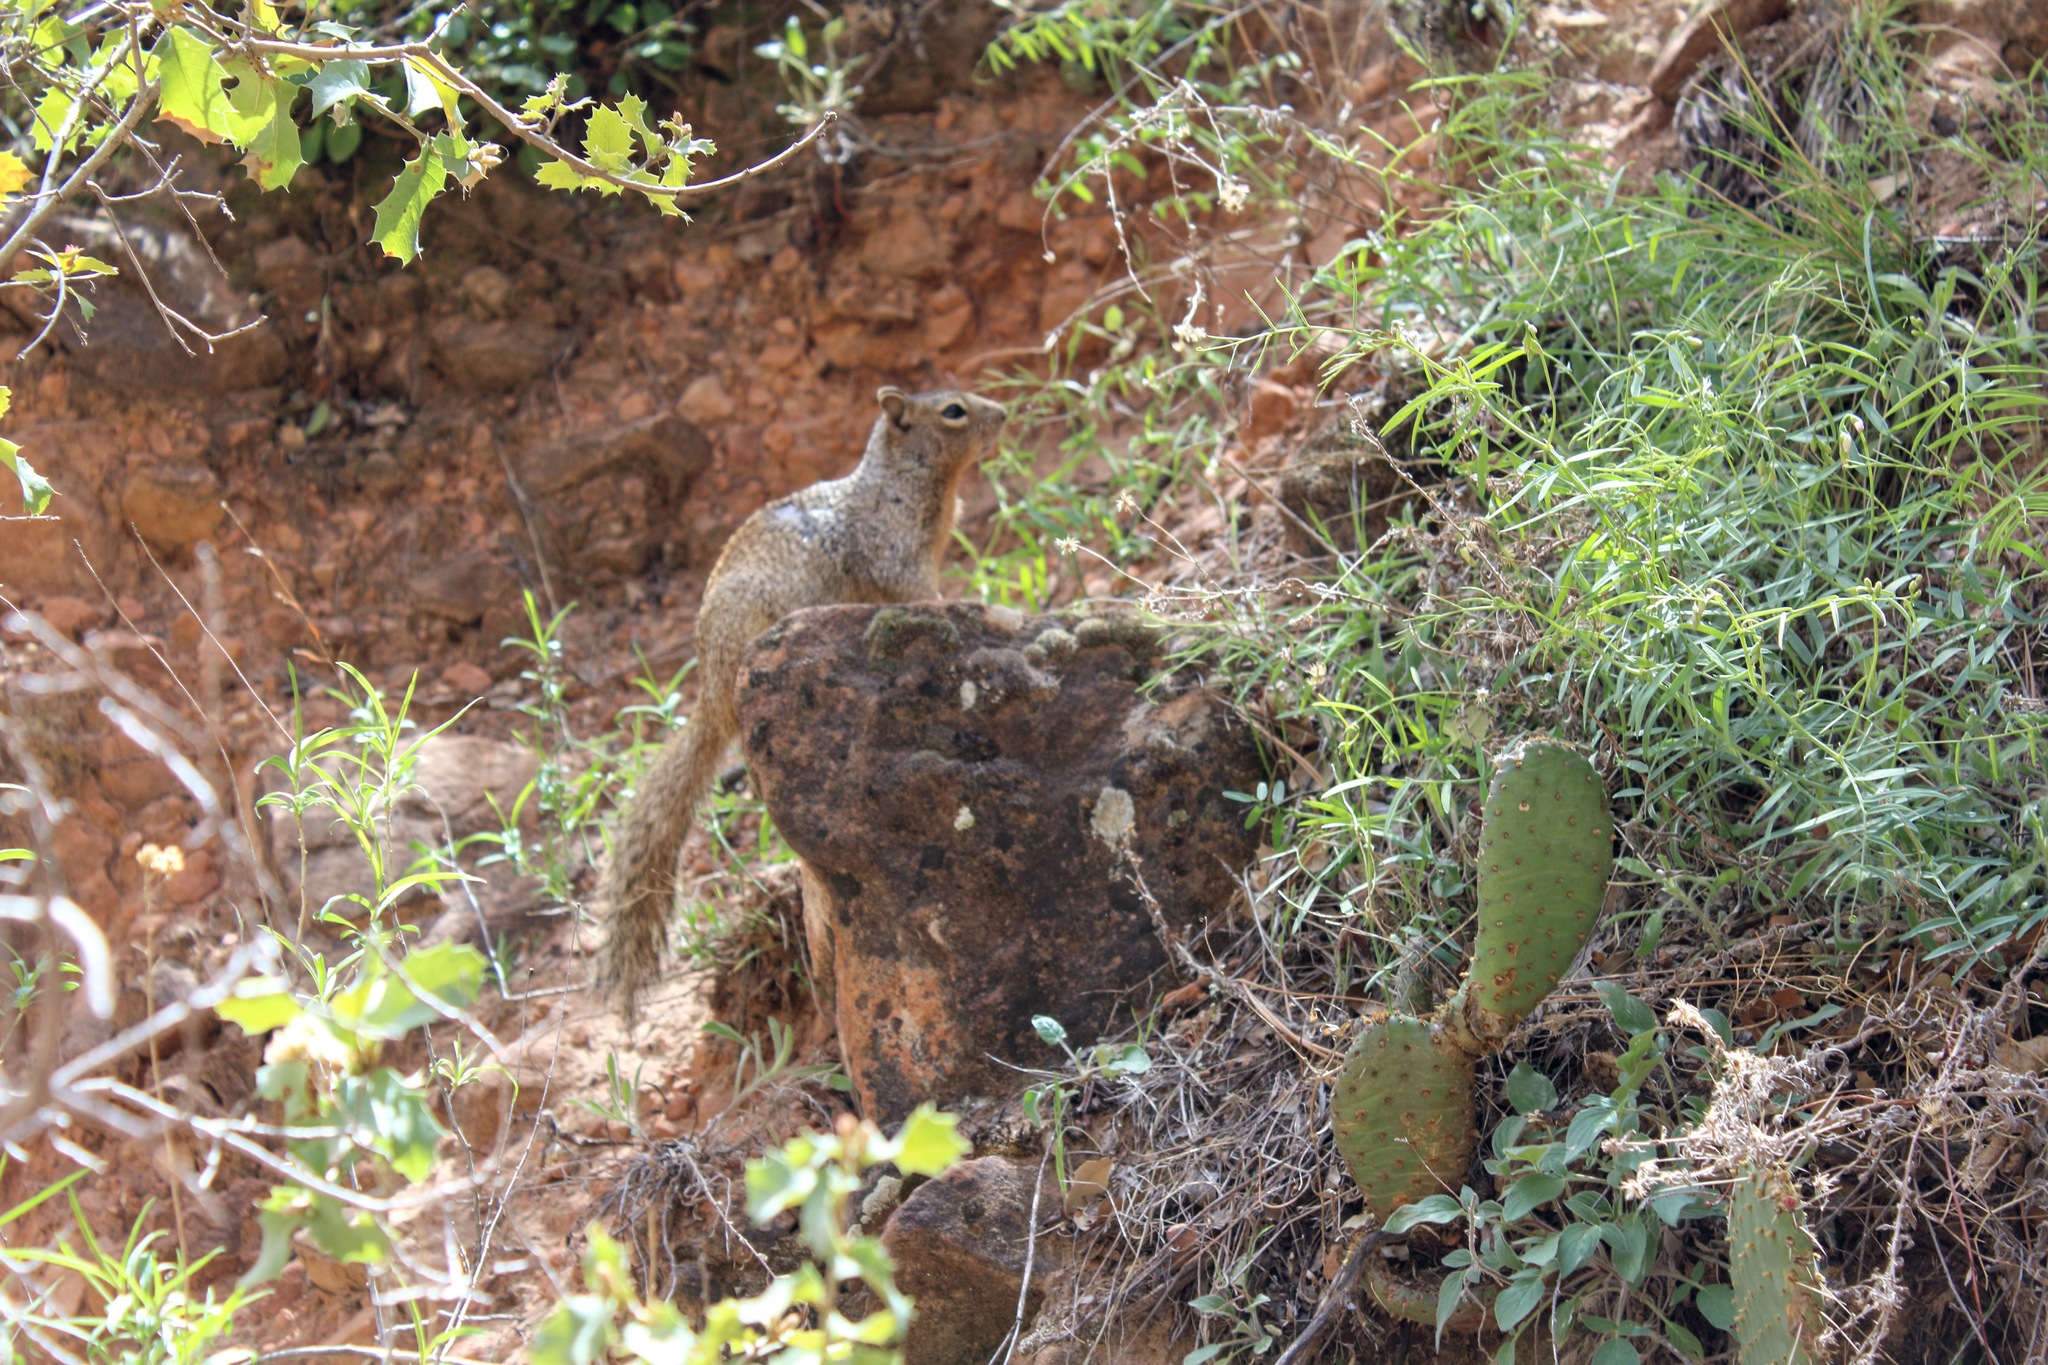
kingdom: Animalia
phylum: Chordata
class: Mammalia
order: Rodentia
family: Sciuridae
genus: Otospermophilus
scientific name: Otospermophilus variegatus
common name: Rock squirrel
